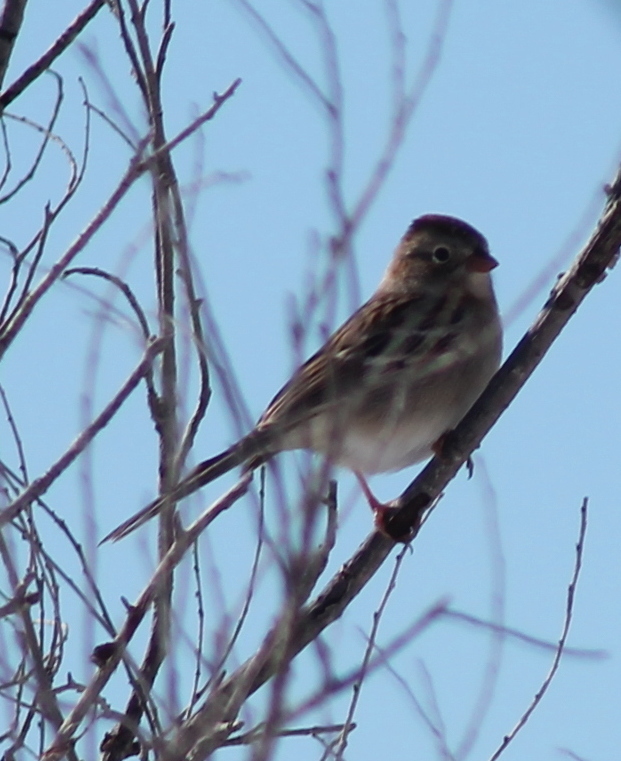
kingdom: Animalia
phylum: Chordata
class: Aves
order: Passeriformes
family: Passerellidae
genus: Spizella
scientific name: Spizella pusilla
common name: Field sparrow
